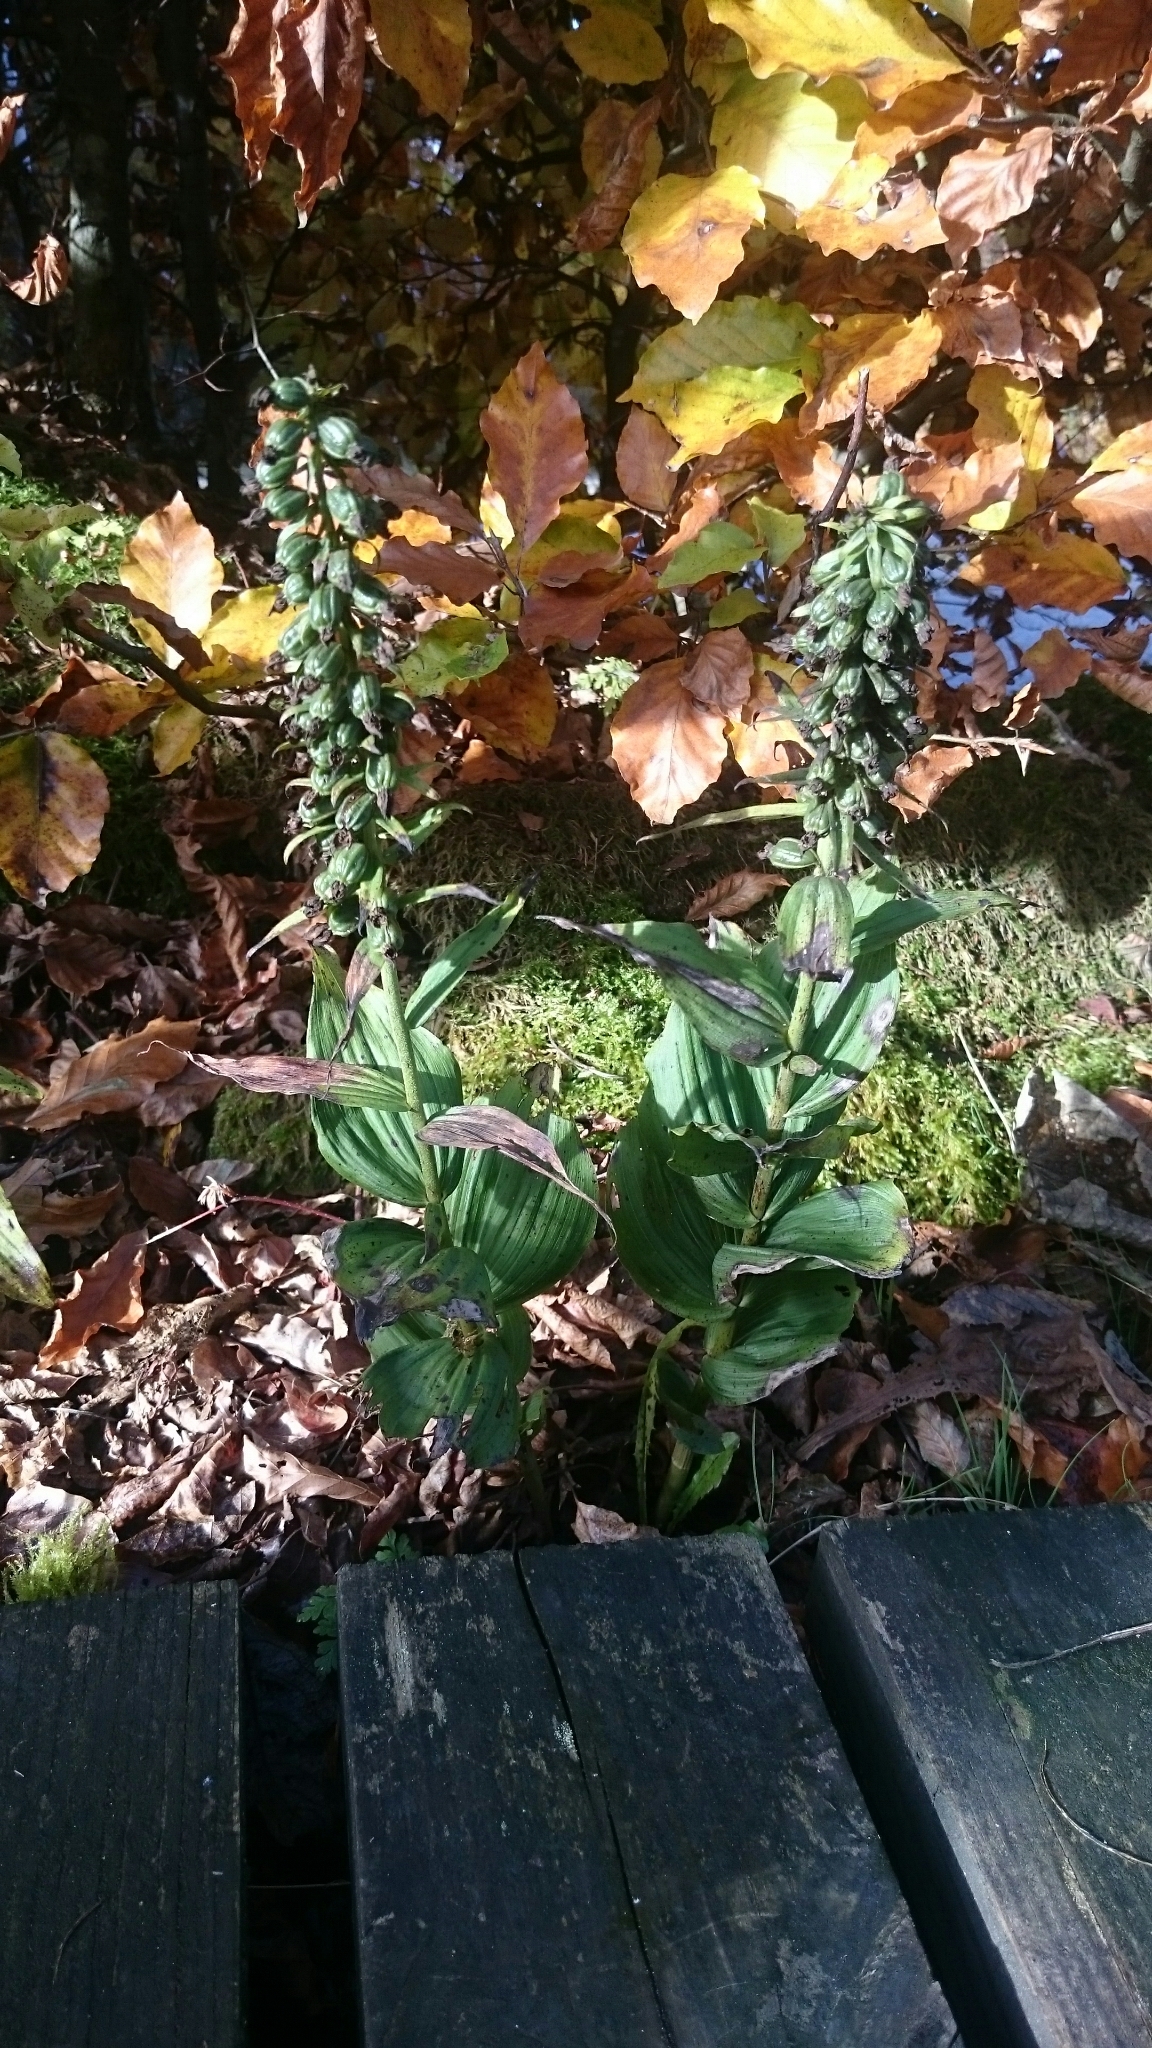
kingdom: Plantae
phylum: Tracheophyta
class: Liliopsida
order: Asparagales
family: Orchidaceae
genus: Epipactis
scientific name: Epipactis helleborine
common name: Broad-leaved helleborine
